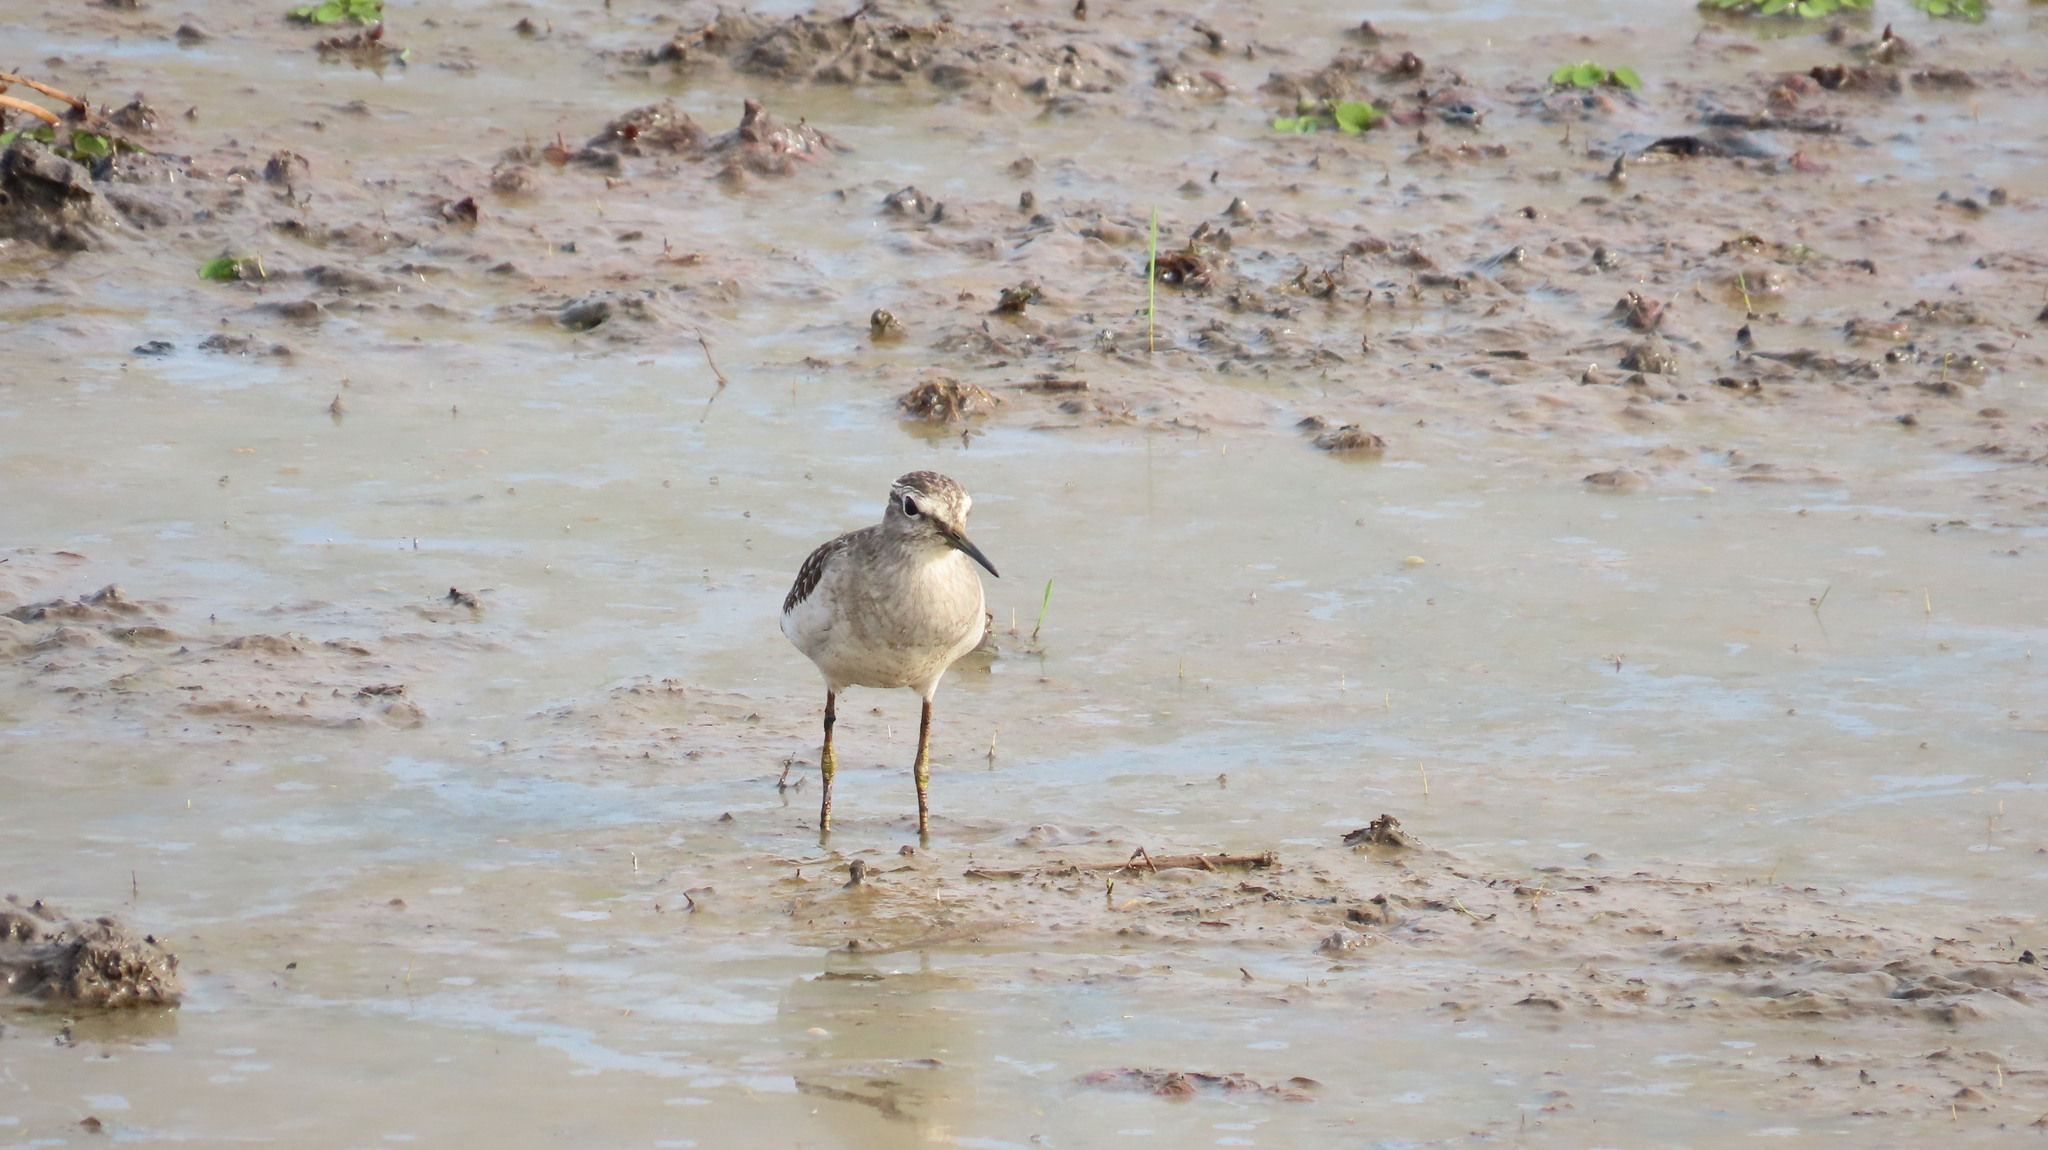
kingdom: Animalia
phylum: Chordata
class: Aves
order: Charadriiformes
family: Scolopacidae
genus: Tringa
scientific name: Tringa glareola
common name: Wood sandpiper
